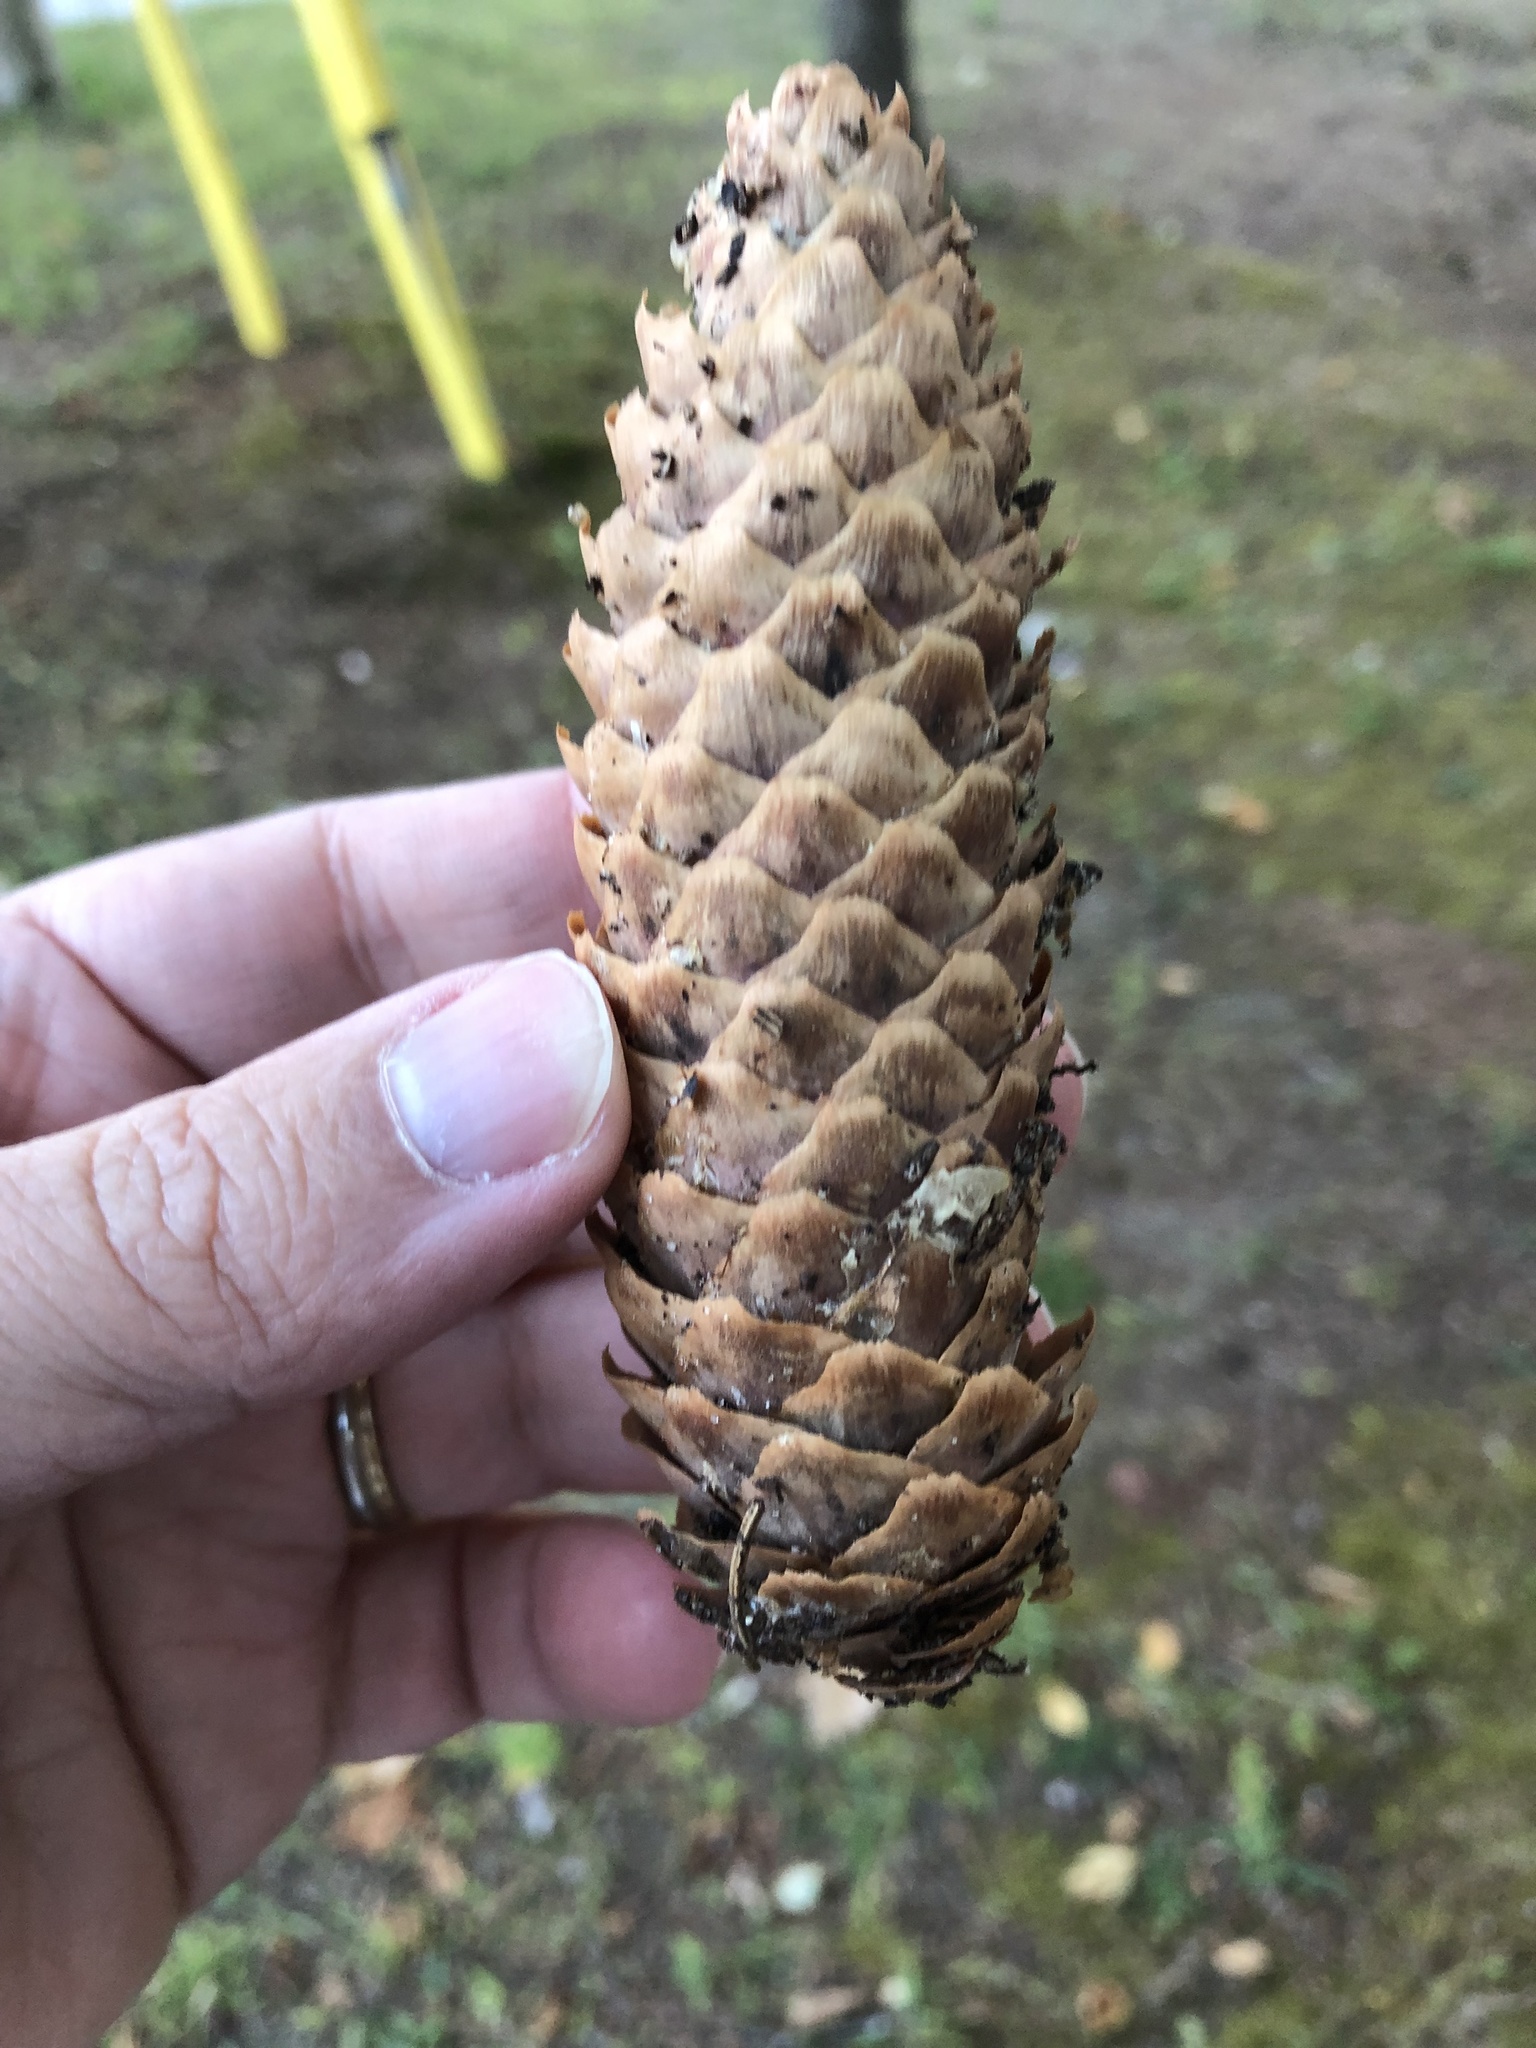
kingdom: Plantae
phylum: Tracheophyta
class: Pinopsida
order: Pinales
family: Pinaceae
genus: Picea
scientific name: Picea abies
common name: Norway spruce
